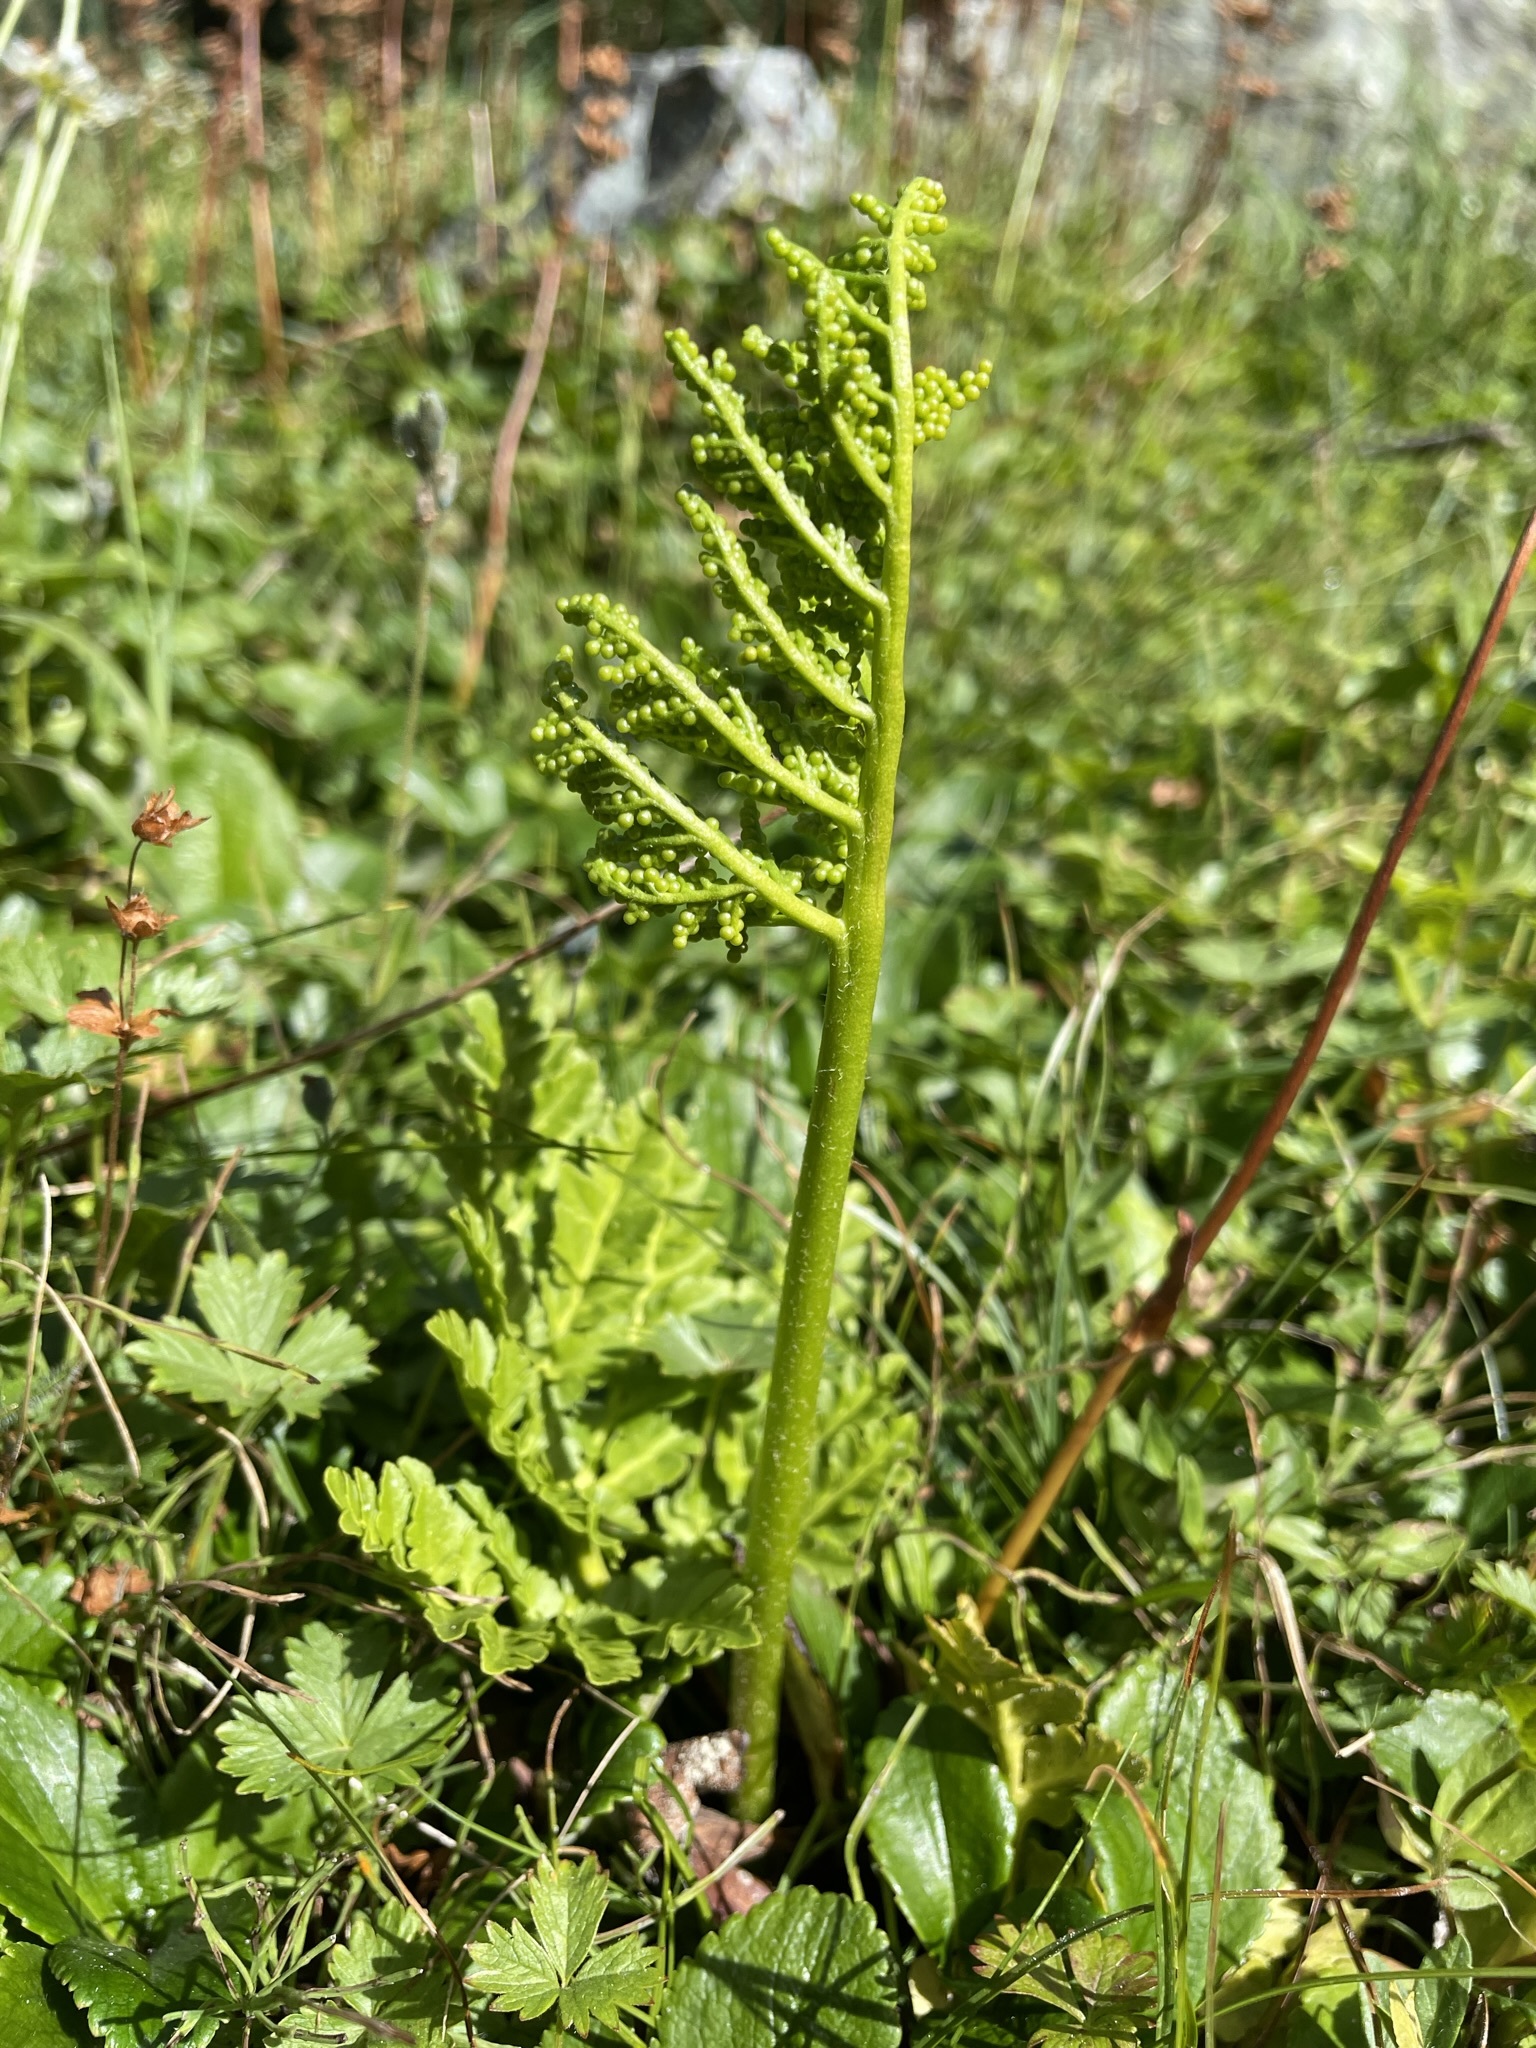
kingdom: Plantae
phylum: Tracheophyta
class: Polypodiopsida
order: Ophioglossales
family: Ophioglossaceae
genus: Sceptridium
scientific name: Sceptridium multifidum
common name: Leathery grape fern
